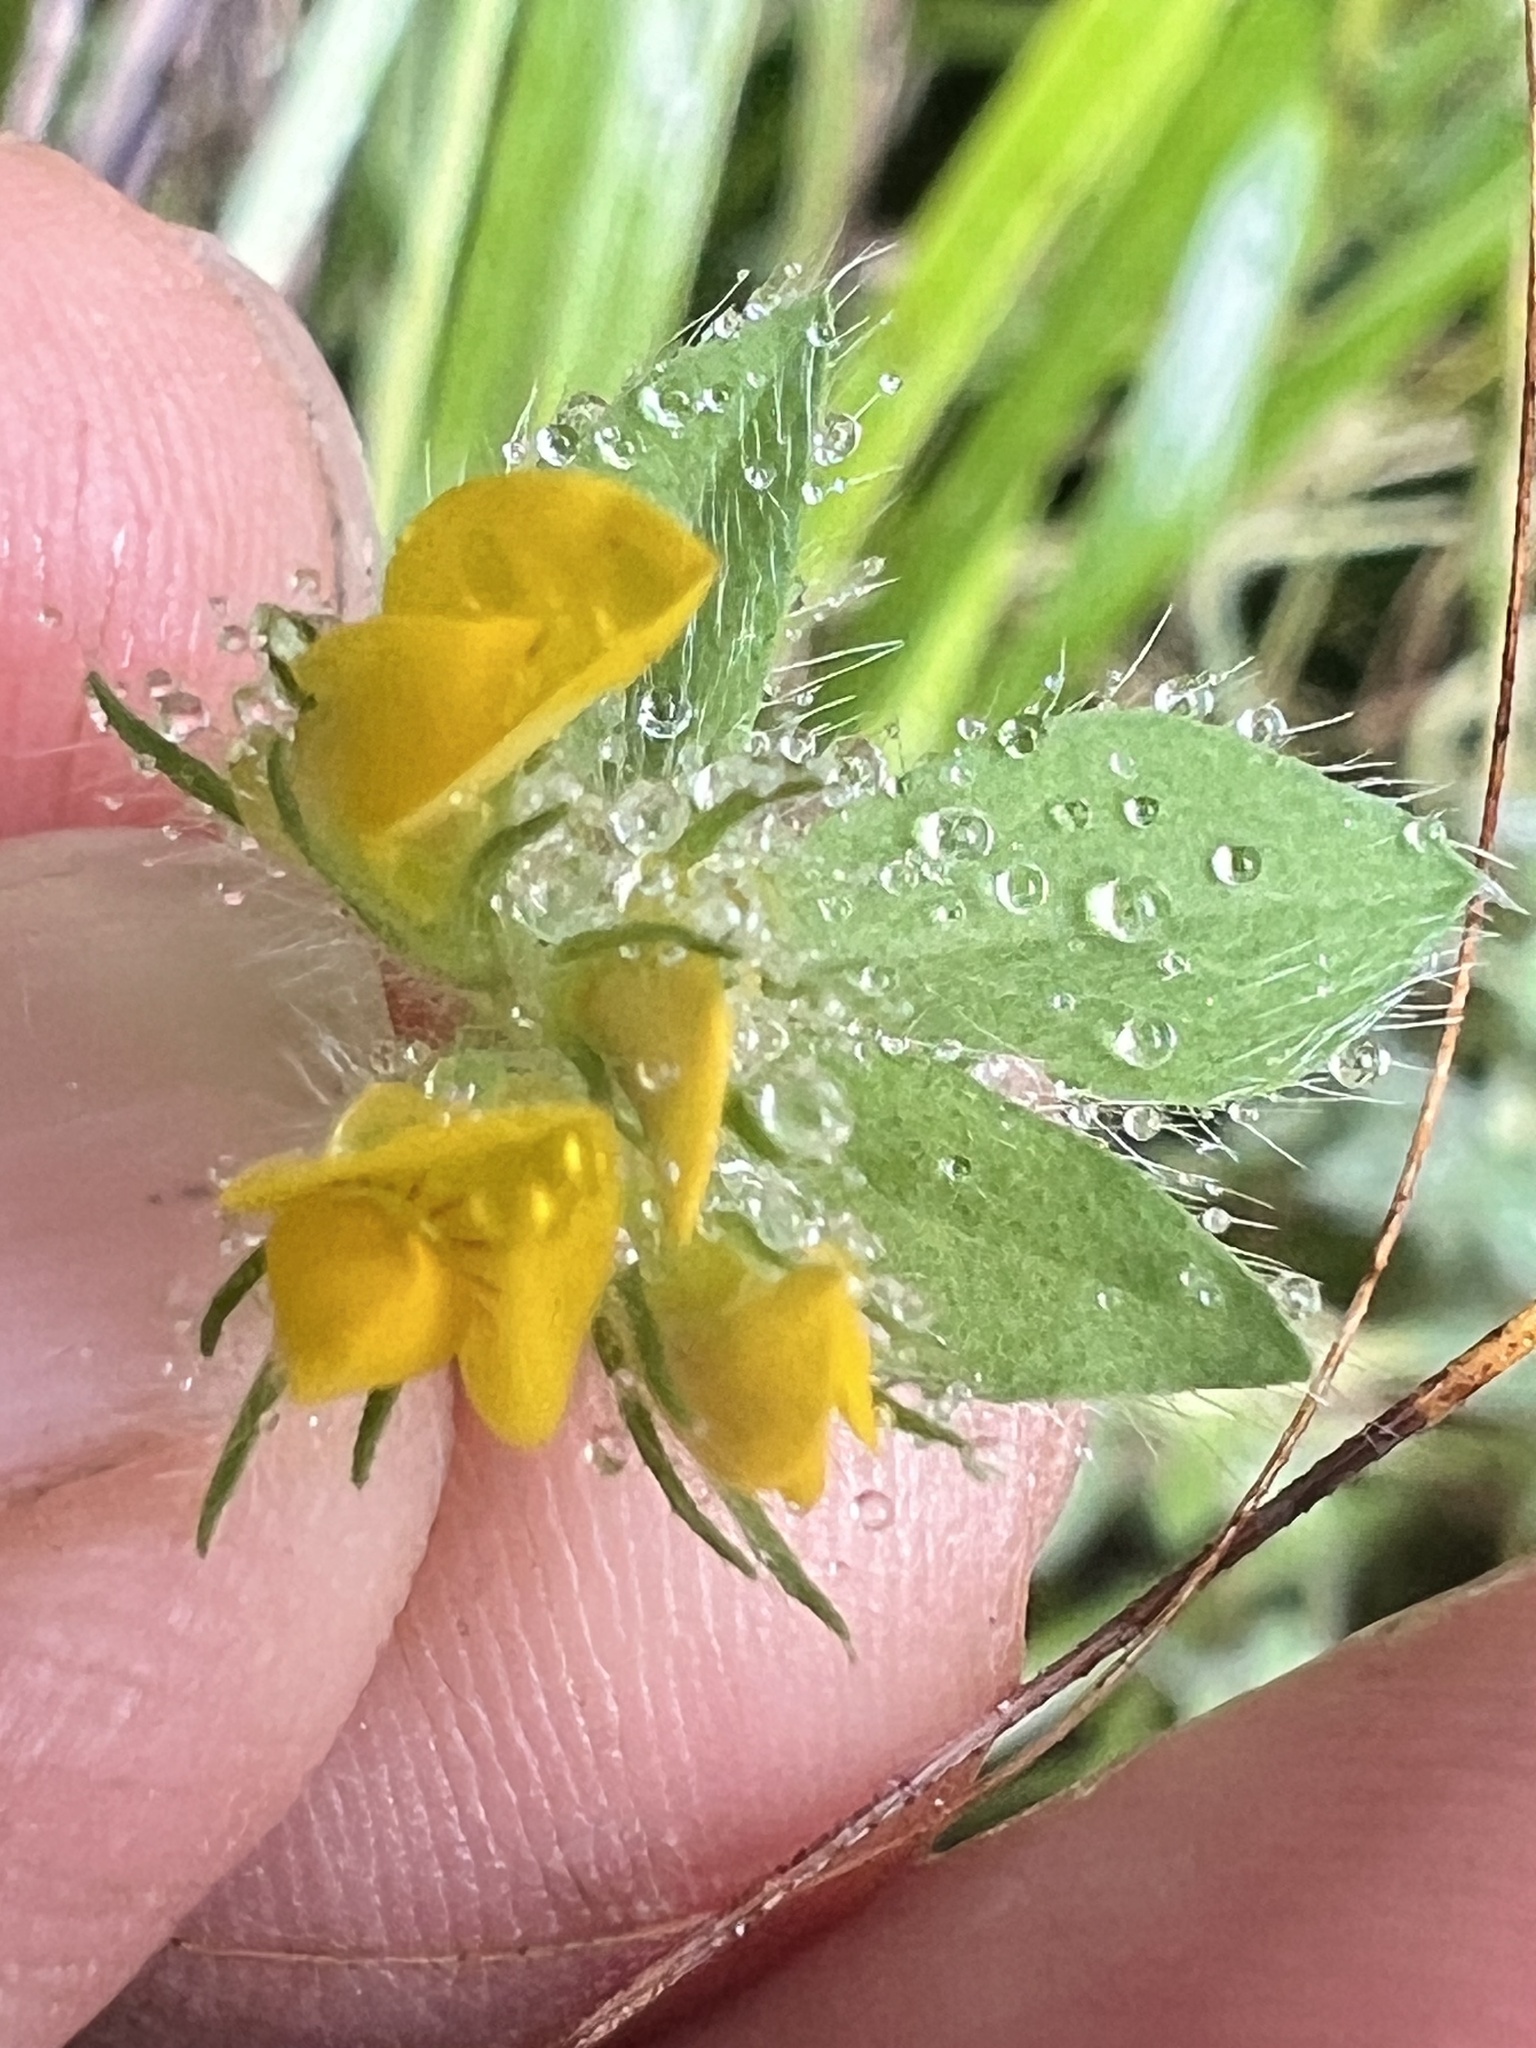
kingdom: Plantae
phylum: Tracheophyta
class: Magnoliopsida
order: Fabales
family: Fabaceae
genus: Lotus
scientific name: Lotus subbiflorus
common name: Hairy bird's-foot trefoil
